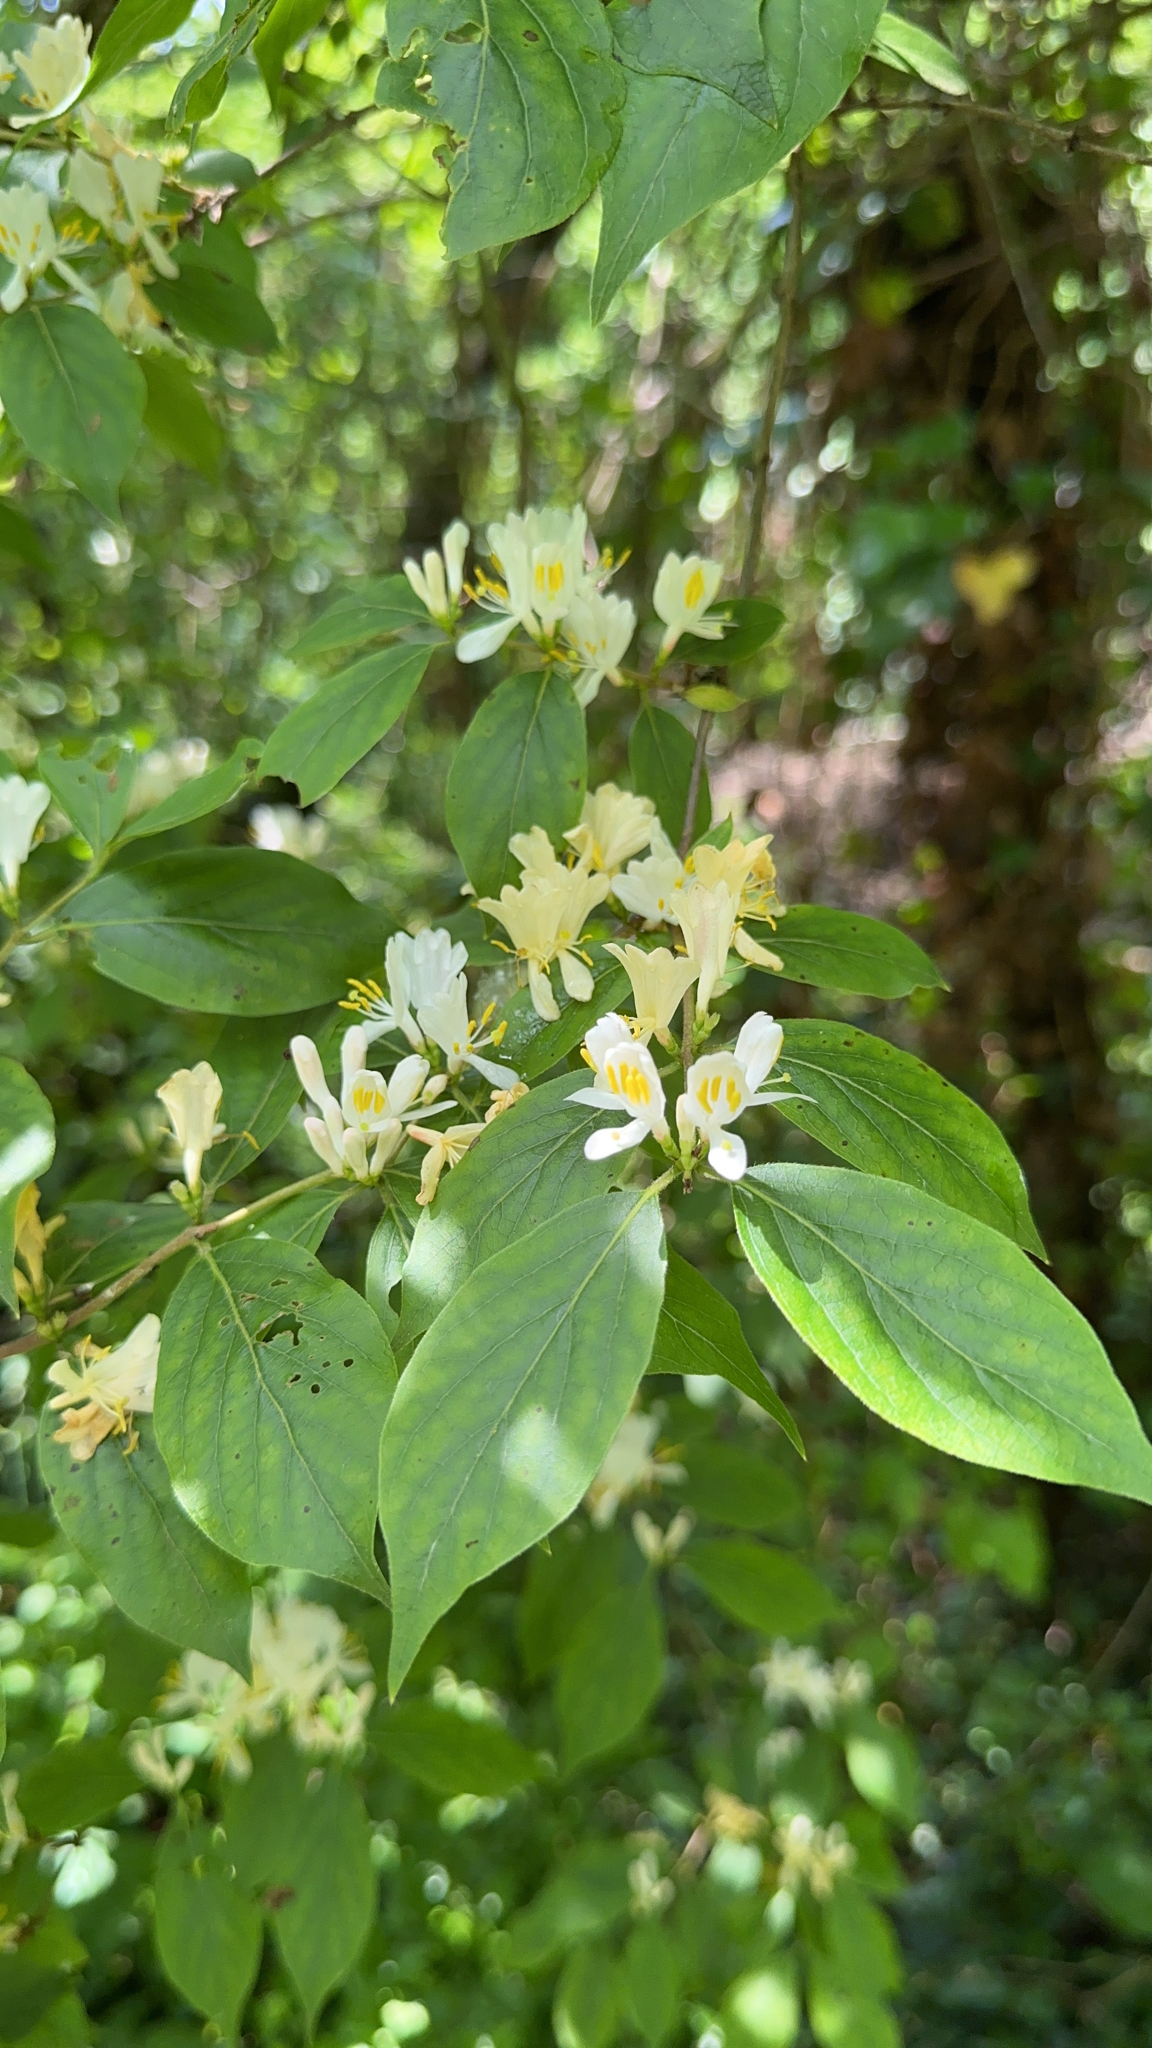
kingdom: Plantae
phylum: Tracheophyta
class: Magnoliopsida
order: Dipsacales
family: Caprifoliaceae
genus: Lonicera
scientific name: Lonicera maackii
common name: Amur honeysuckle
